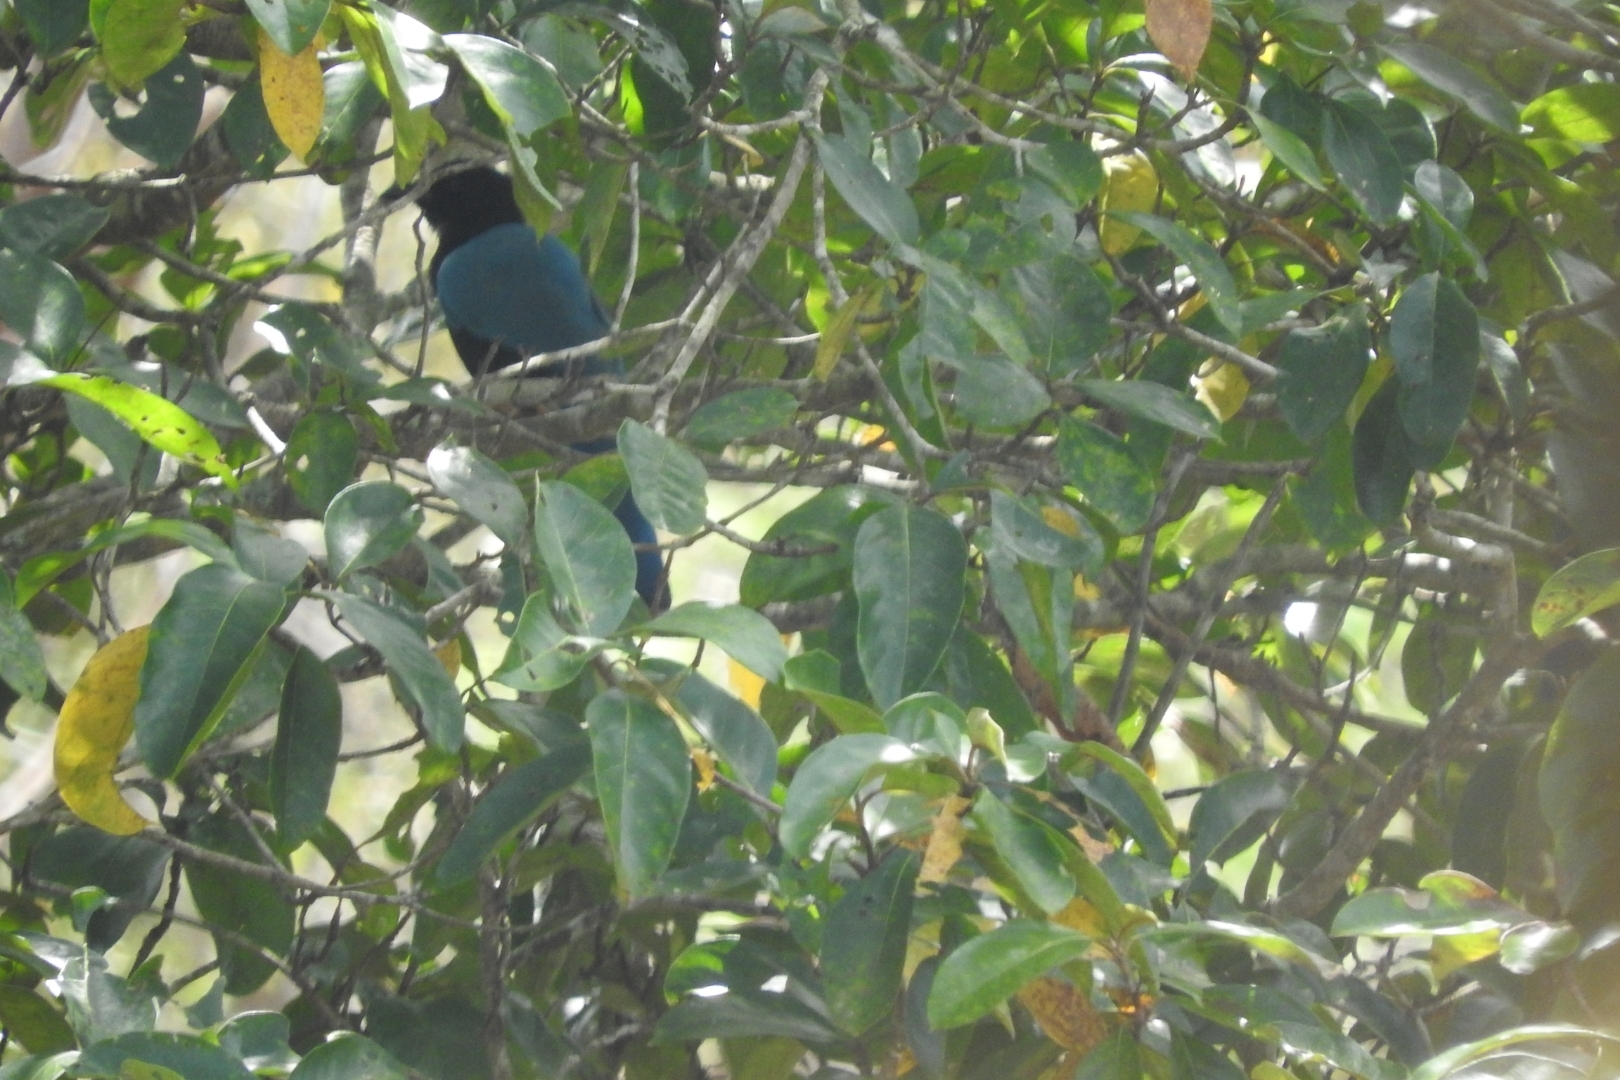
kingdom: Animalia
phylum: Chordata
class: Aves
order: Passeriformes
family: Corvidae
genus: Cyanocorax
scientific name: Cyanocorax yucatanicus
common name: Yucatan jay
